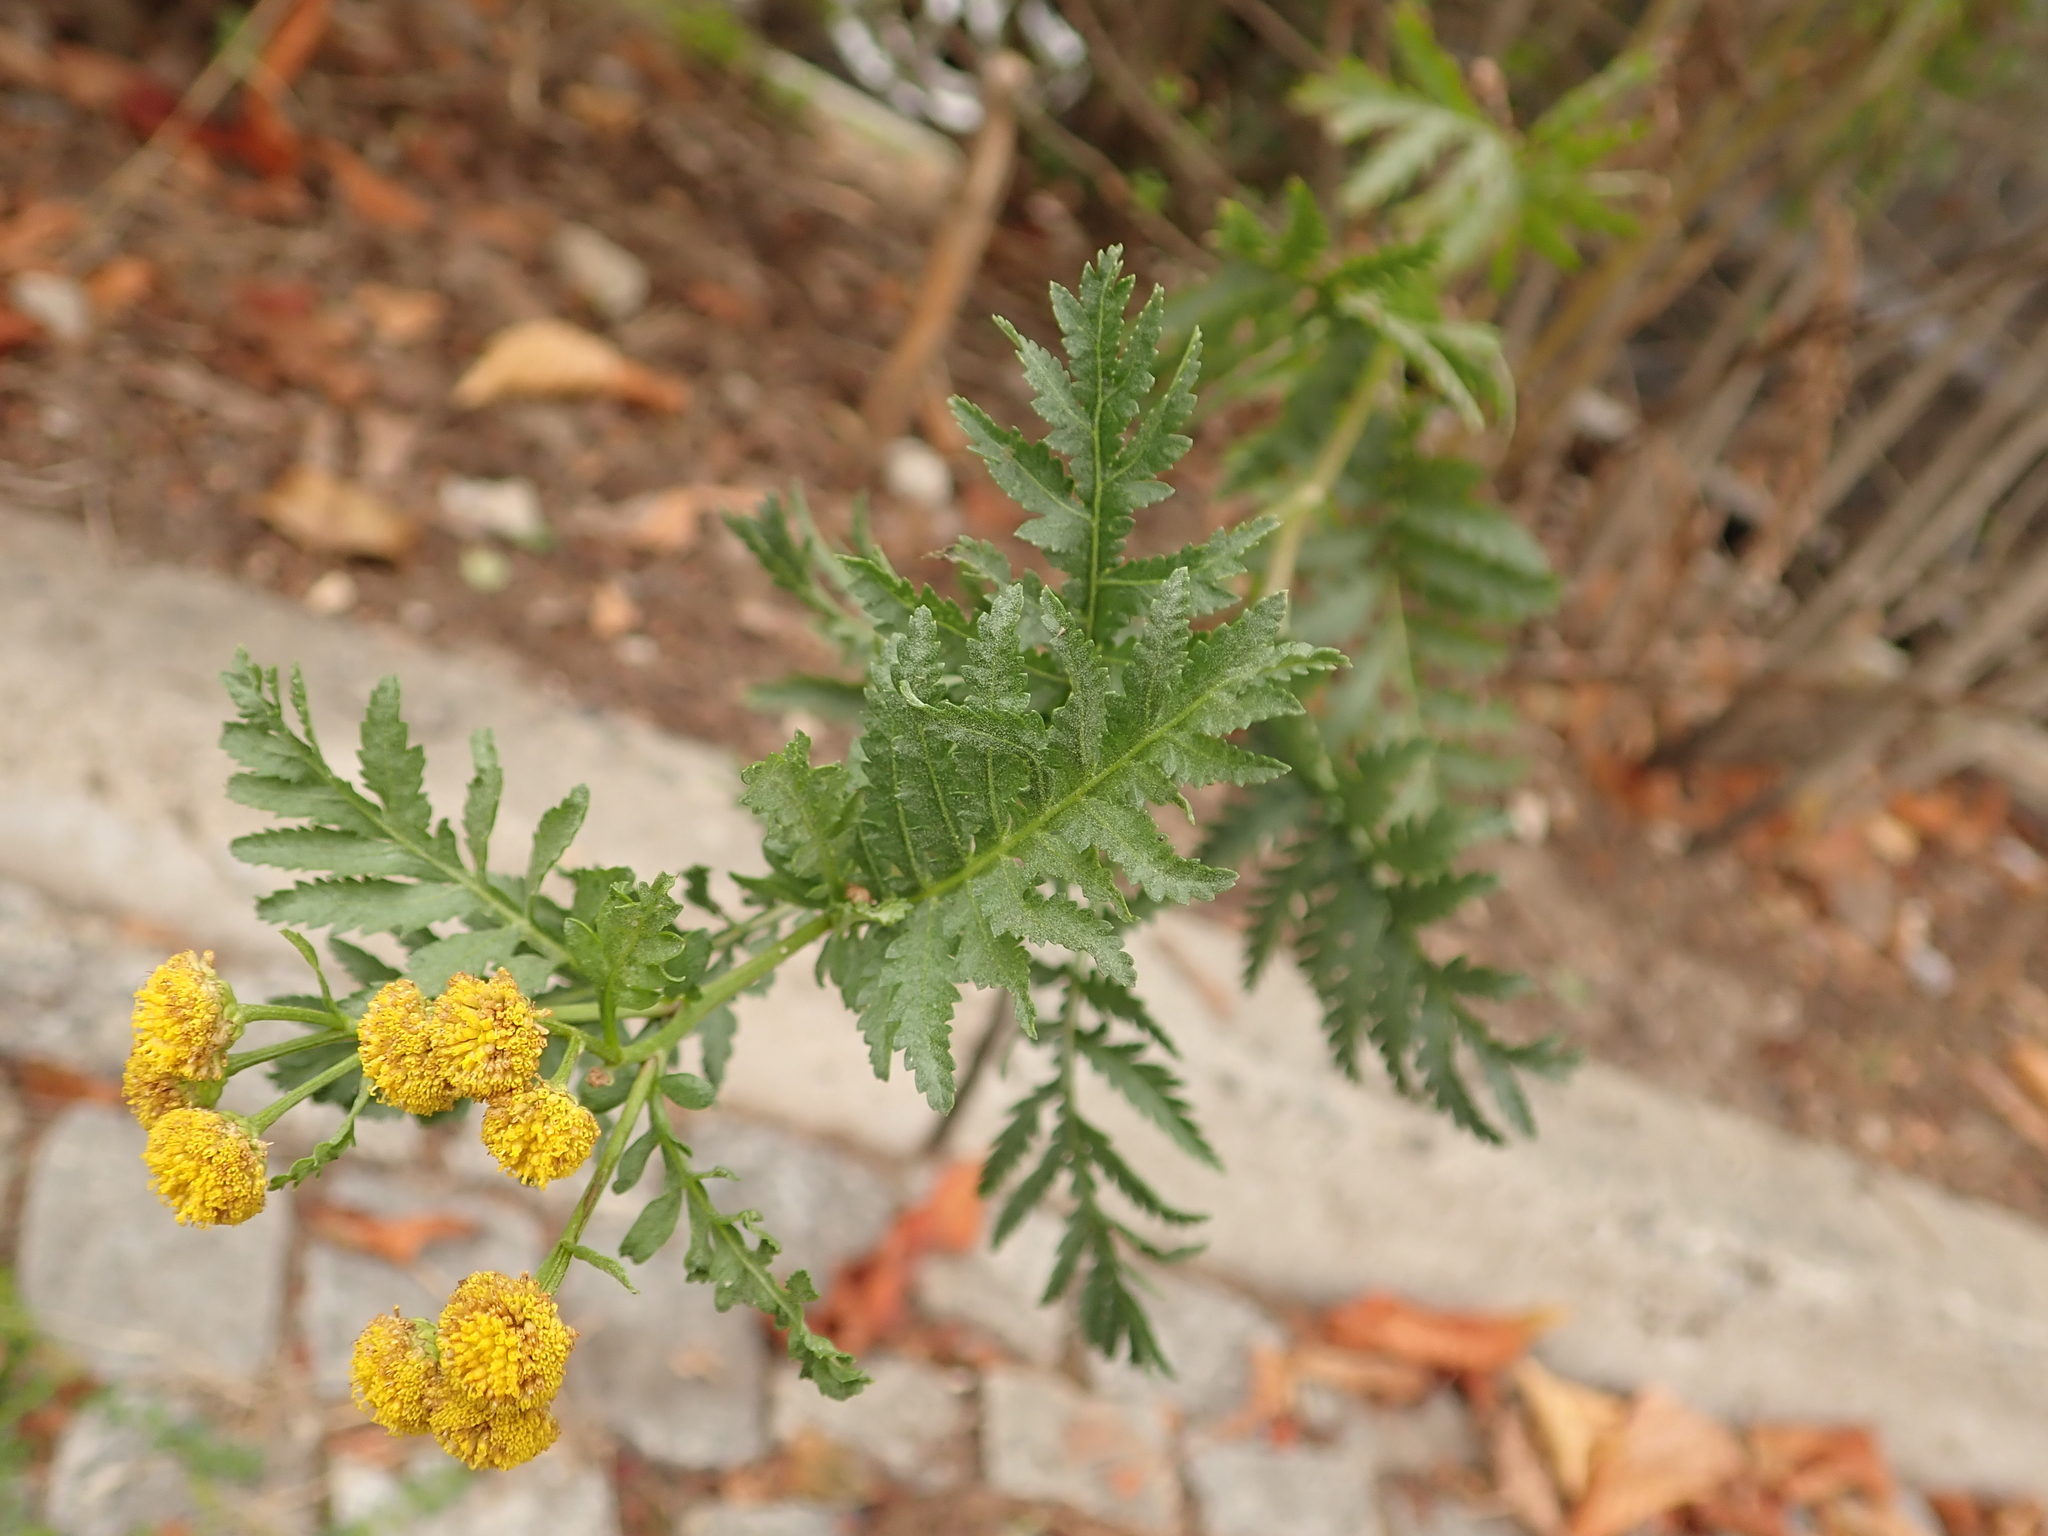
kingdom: Plantae
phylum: Tracheophyta
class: Magnoliopsida
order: Asterales
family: Asteraceae
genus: Tanacetum
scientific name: Tanacetum vulgare
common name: Common tansy
